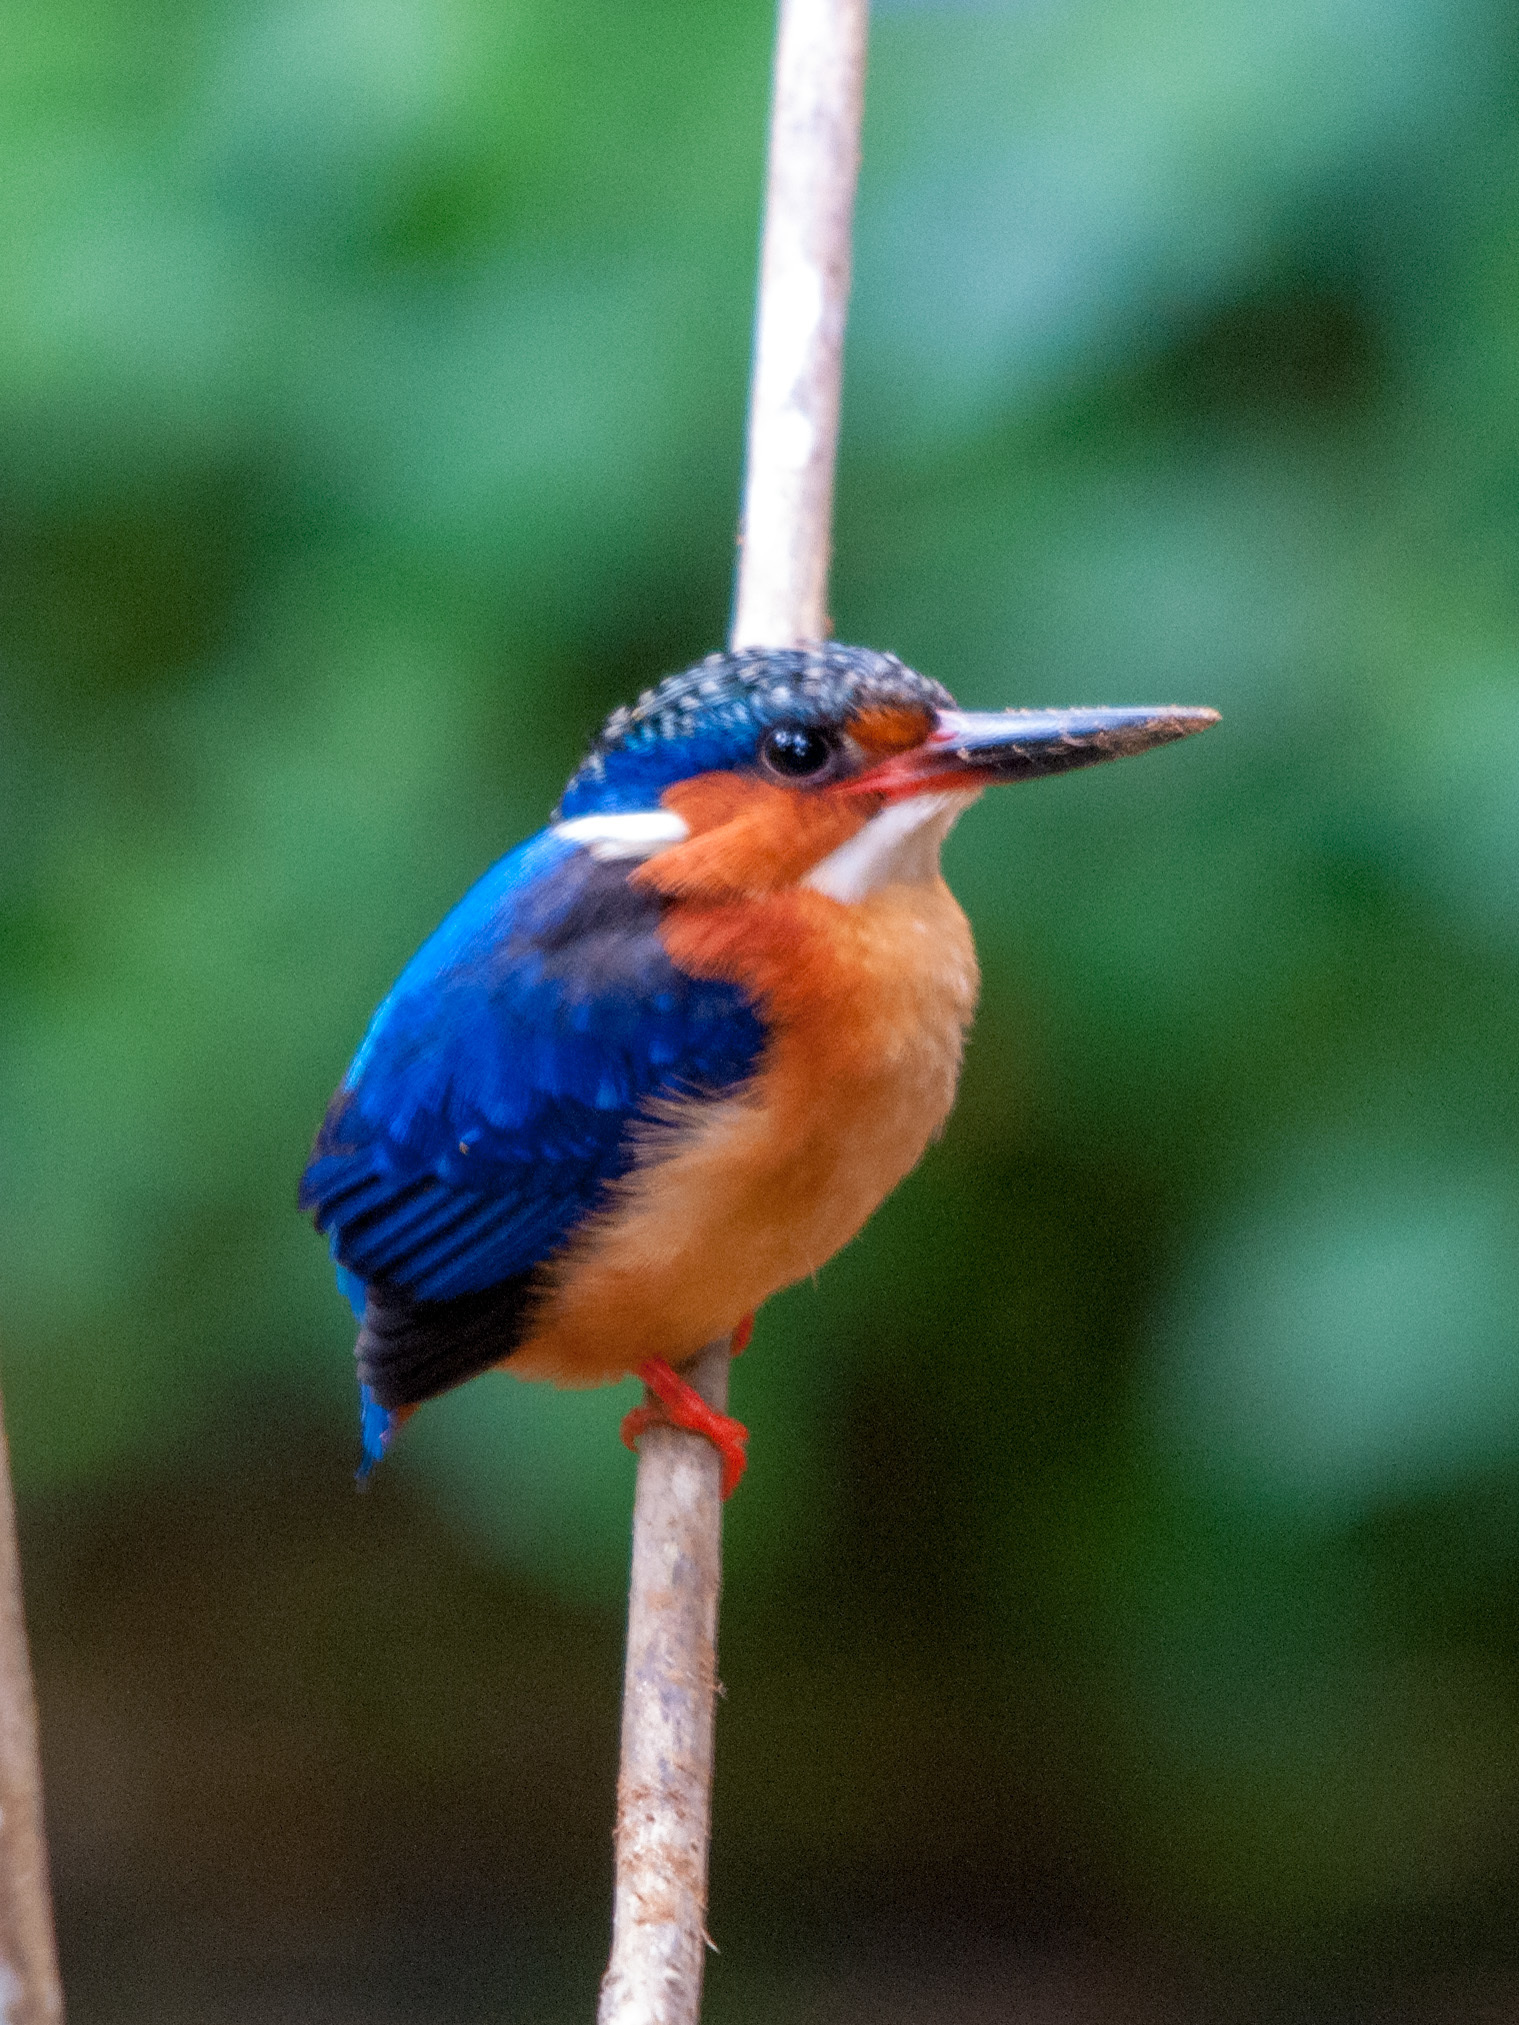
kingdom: Animalia
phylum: Chordata
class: Aves
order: Coraciiformes
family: Alcedinidae
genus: Corythornis
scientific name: Corythornis vintsioides
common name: Malagasy kingfisher
